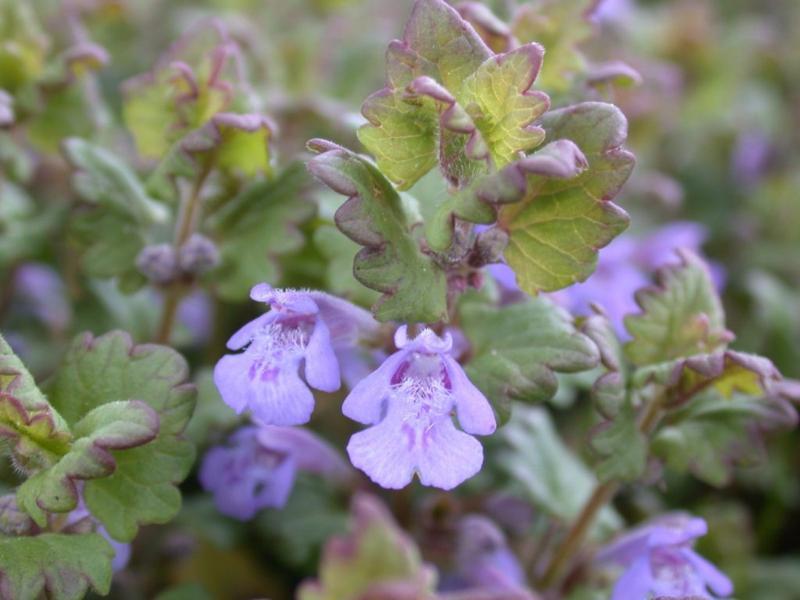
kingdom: Plantae
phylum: Tracheophyta
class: Magnoliopsida
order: Lamiales
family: Lamiaceae
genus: Glechoma
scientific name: Glechoma hederacea
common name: Ground ivy
